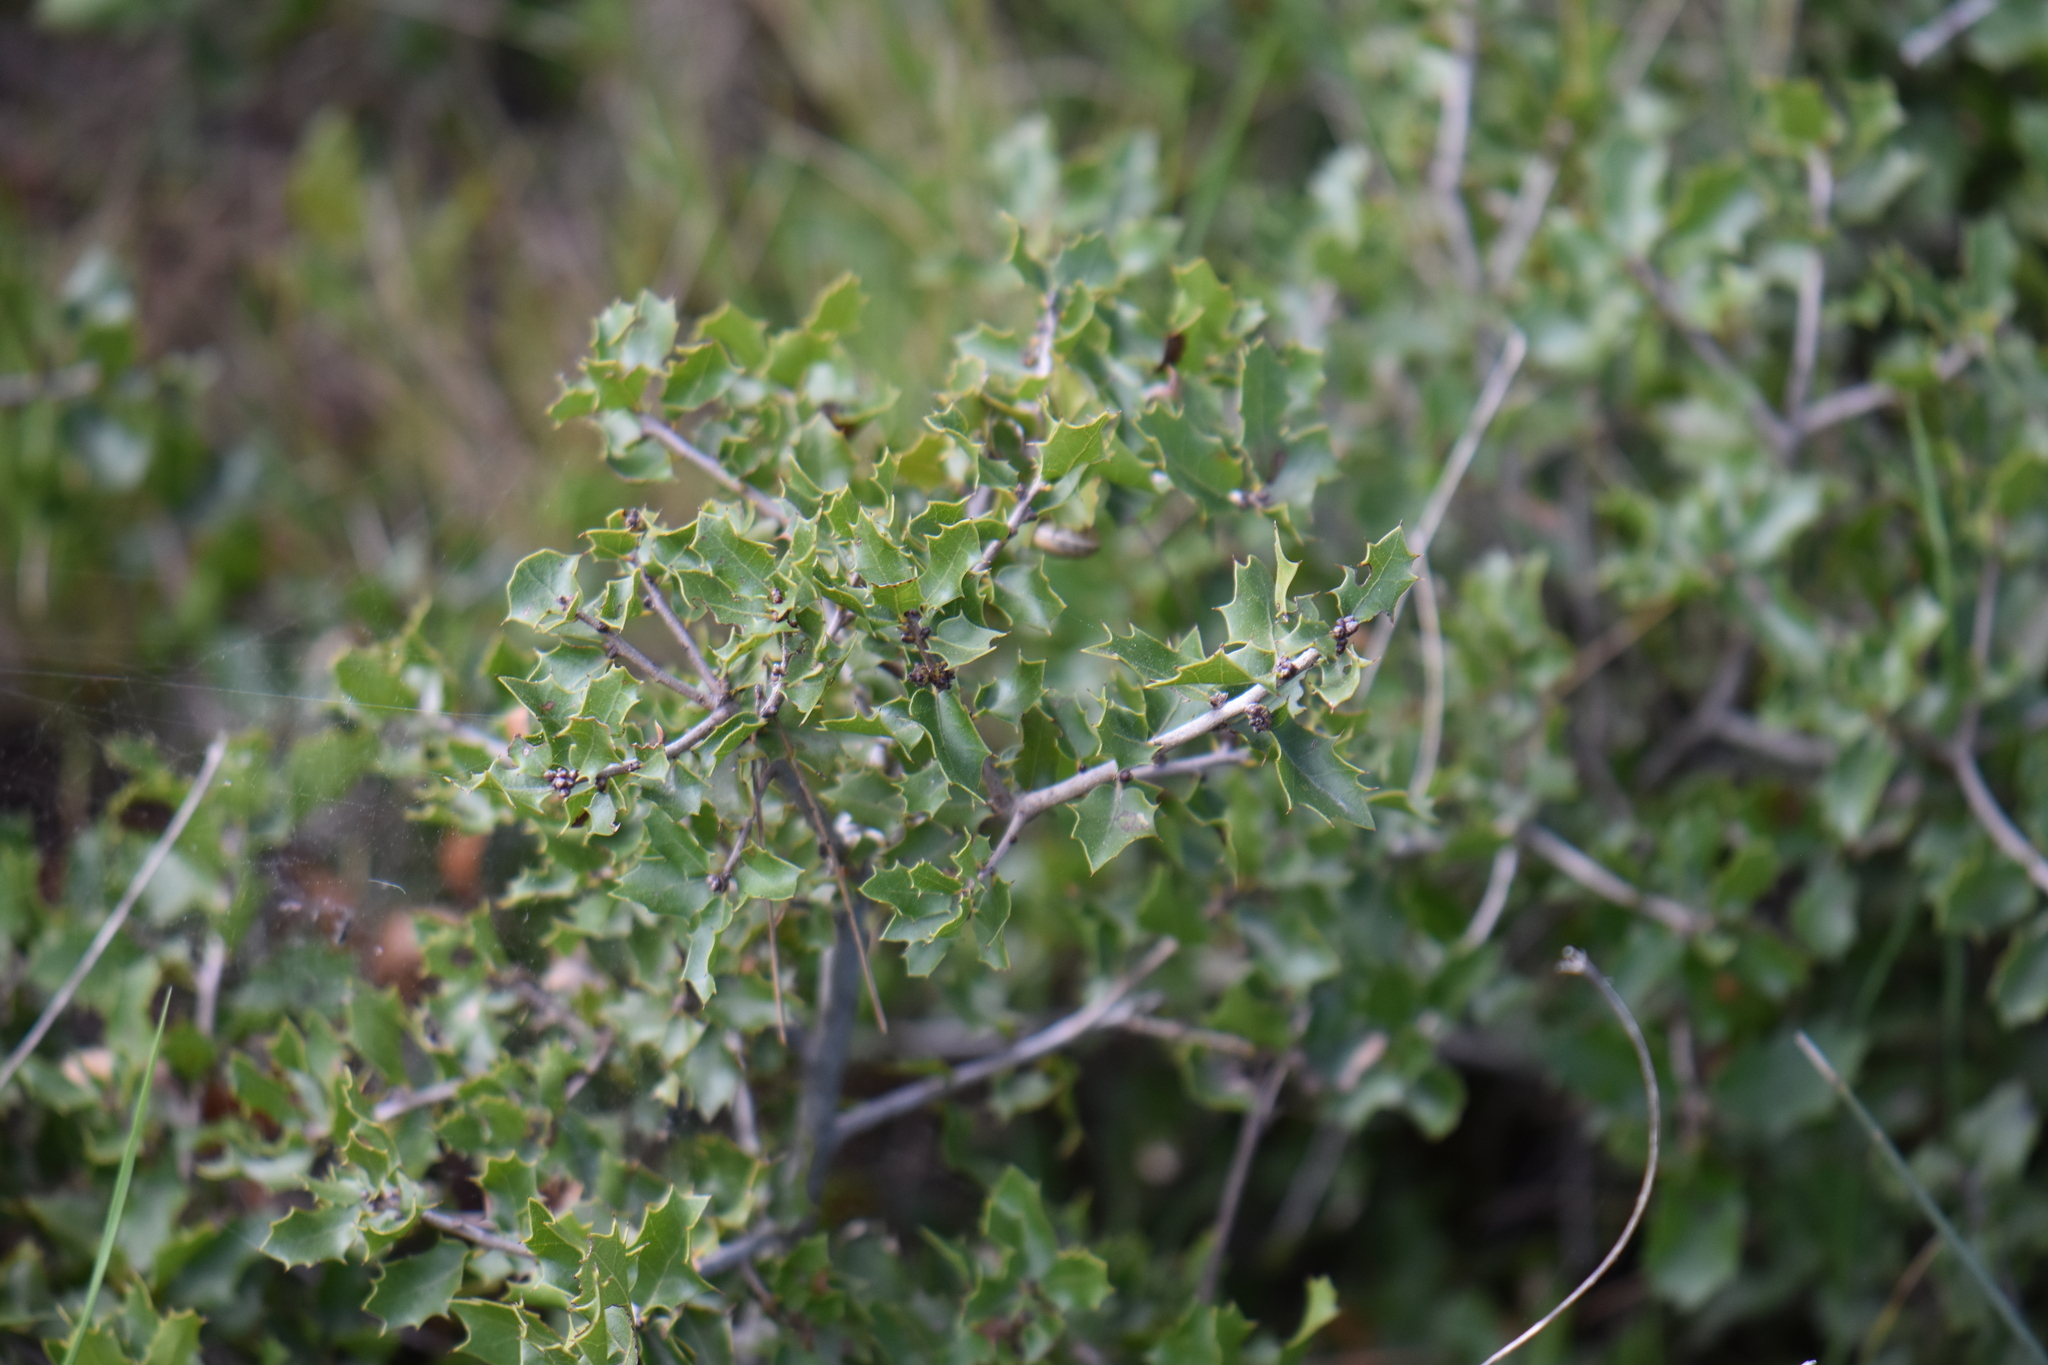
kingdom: Plantae
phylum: Tracheophyta
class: Magnoliopsida
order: Fagales
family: Fagaceae
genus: Quercus
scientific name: Quercus coccifera
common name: Kermes oak
